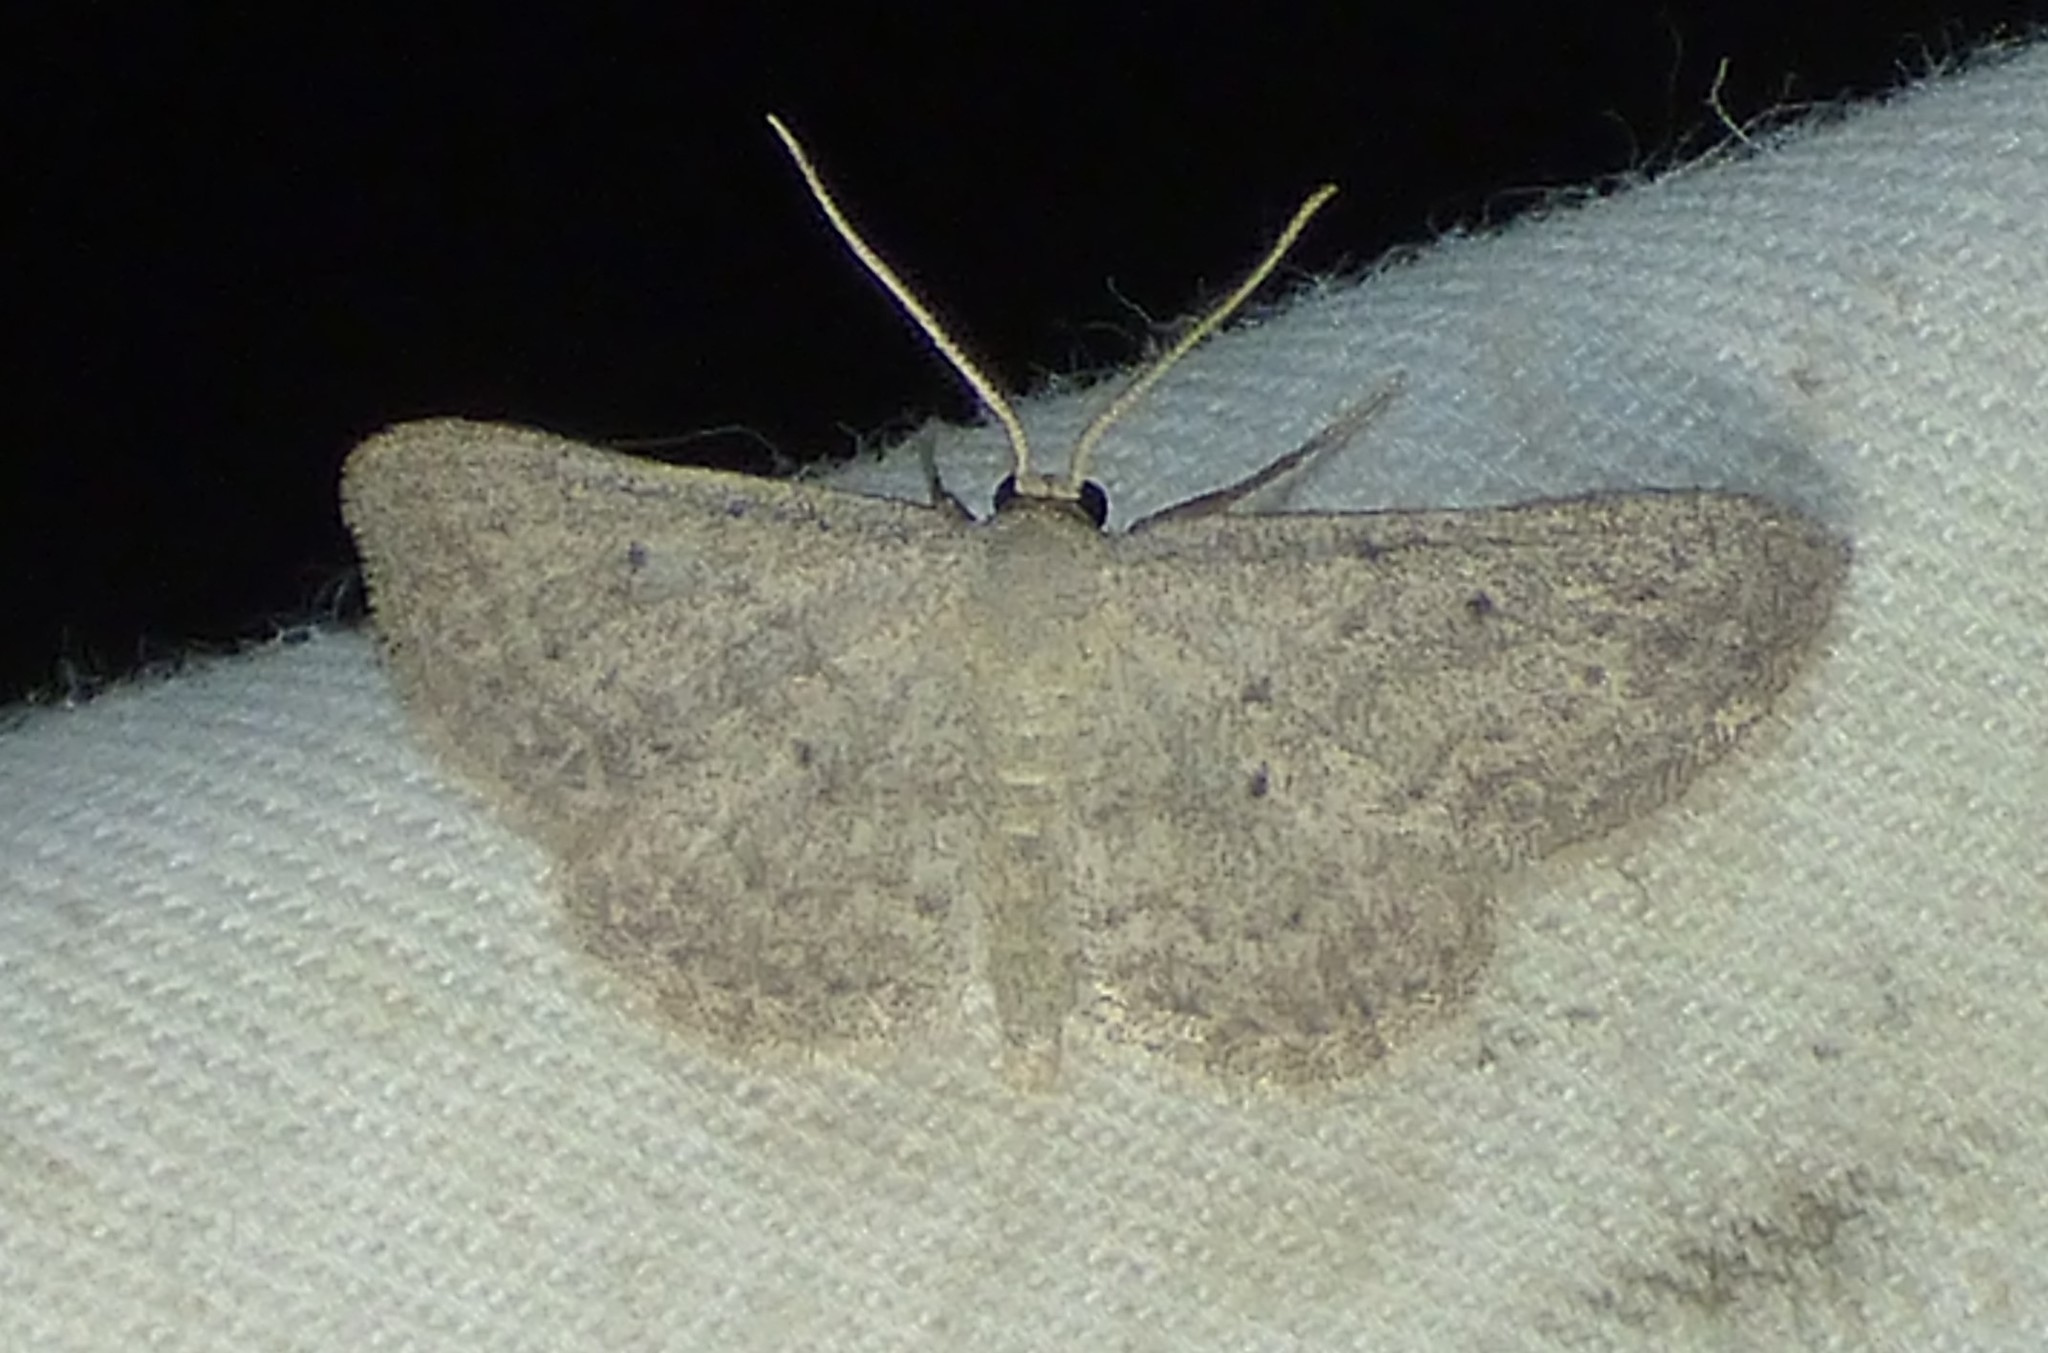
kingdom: Animalia
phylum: Arthropoda
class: Insecta
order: Lepidoptera
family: Geometridae
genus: Lobocleta
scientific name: Lobocleta ossularia
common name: Drab brown wave
